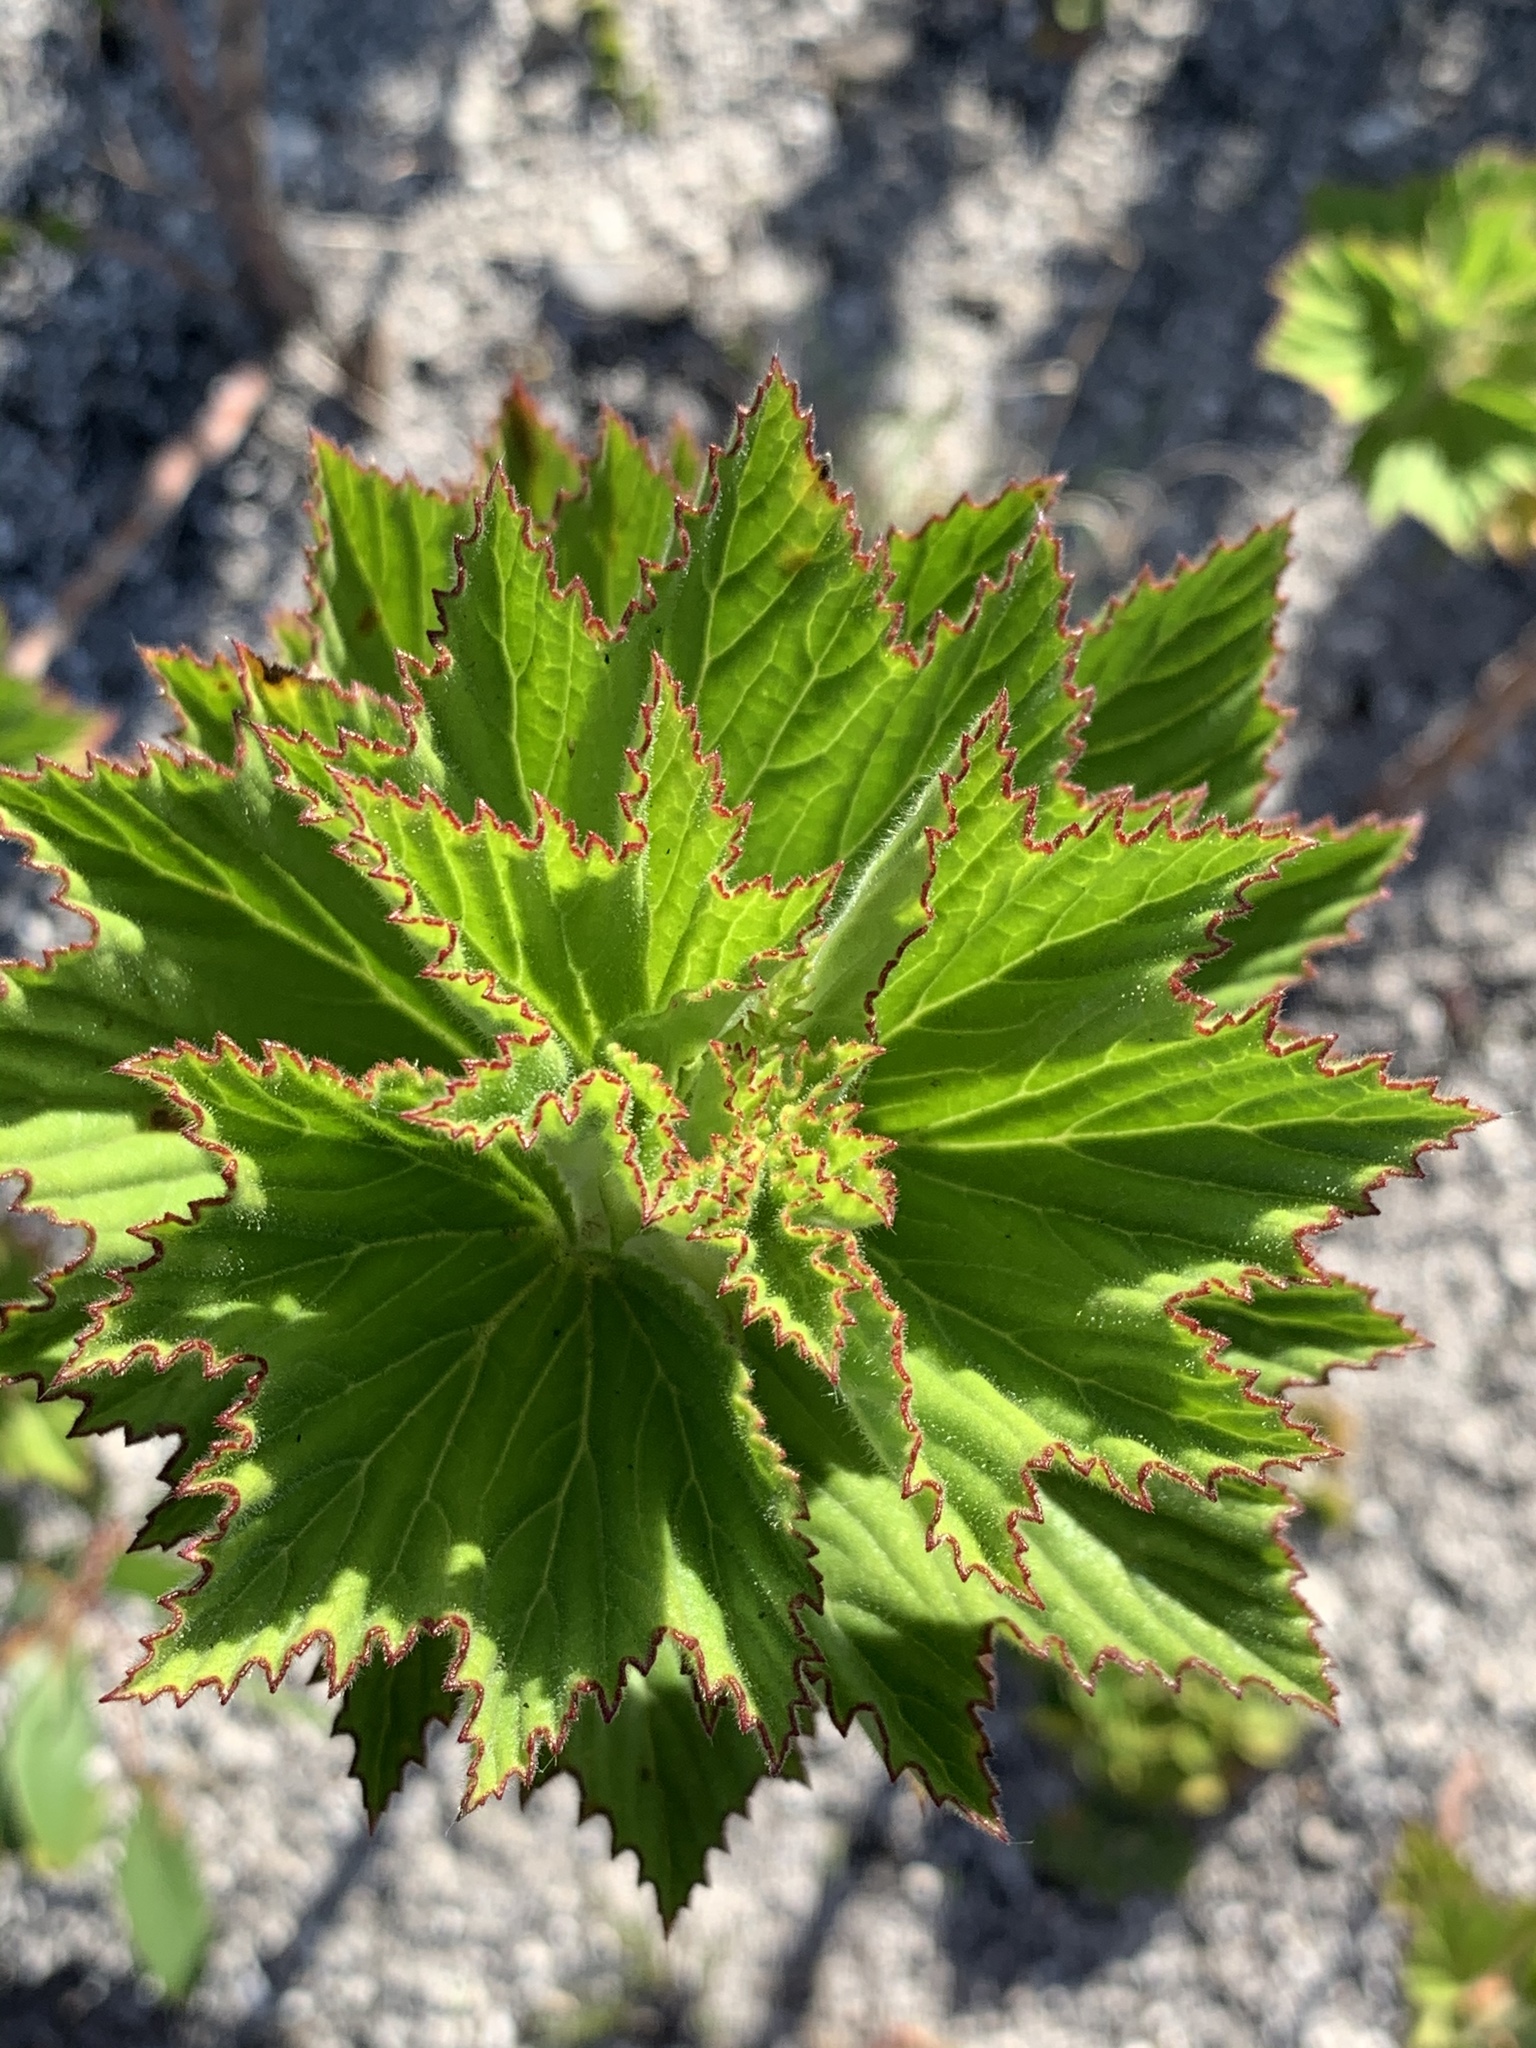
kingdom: Plantae
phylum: Tracheophyta
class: Magnoliopsida
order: Geraniales
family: Geraniaceae
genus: Pelargonium
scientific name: Pelargonium cucullatum
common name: Tree pelargonium
